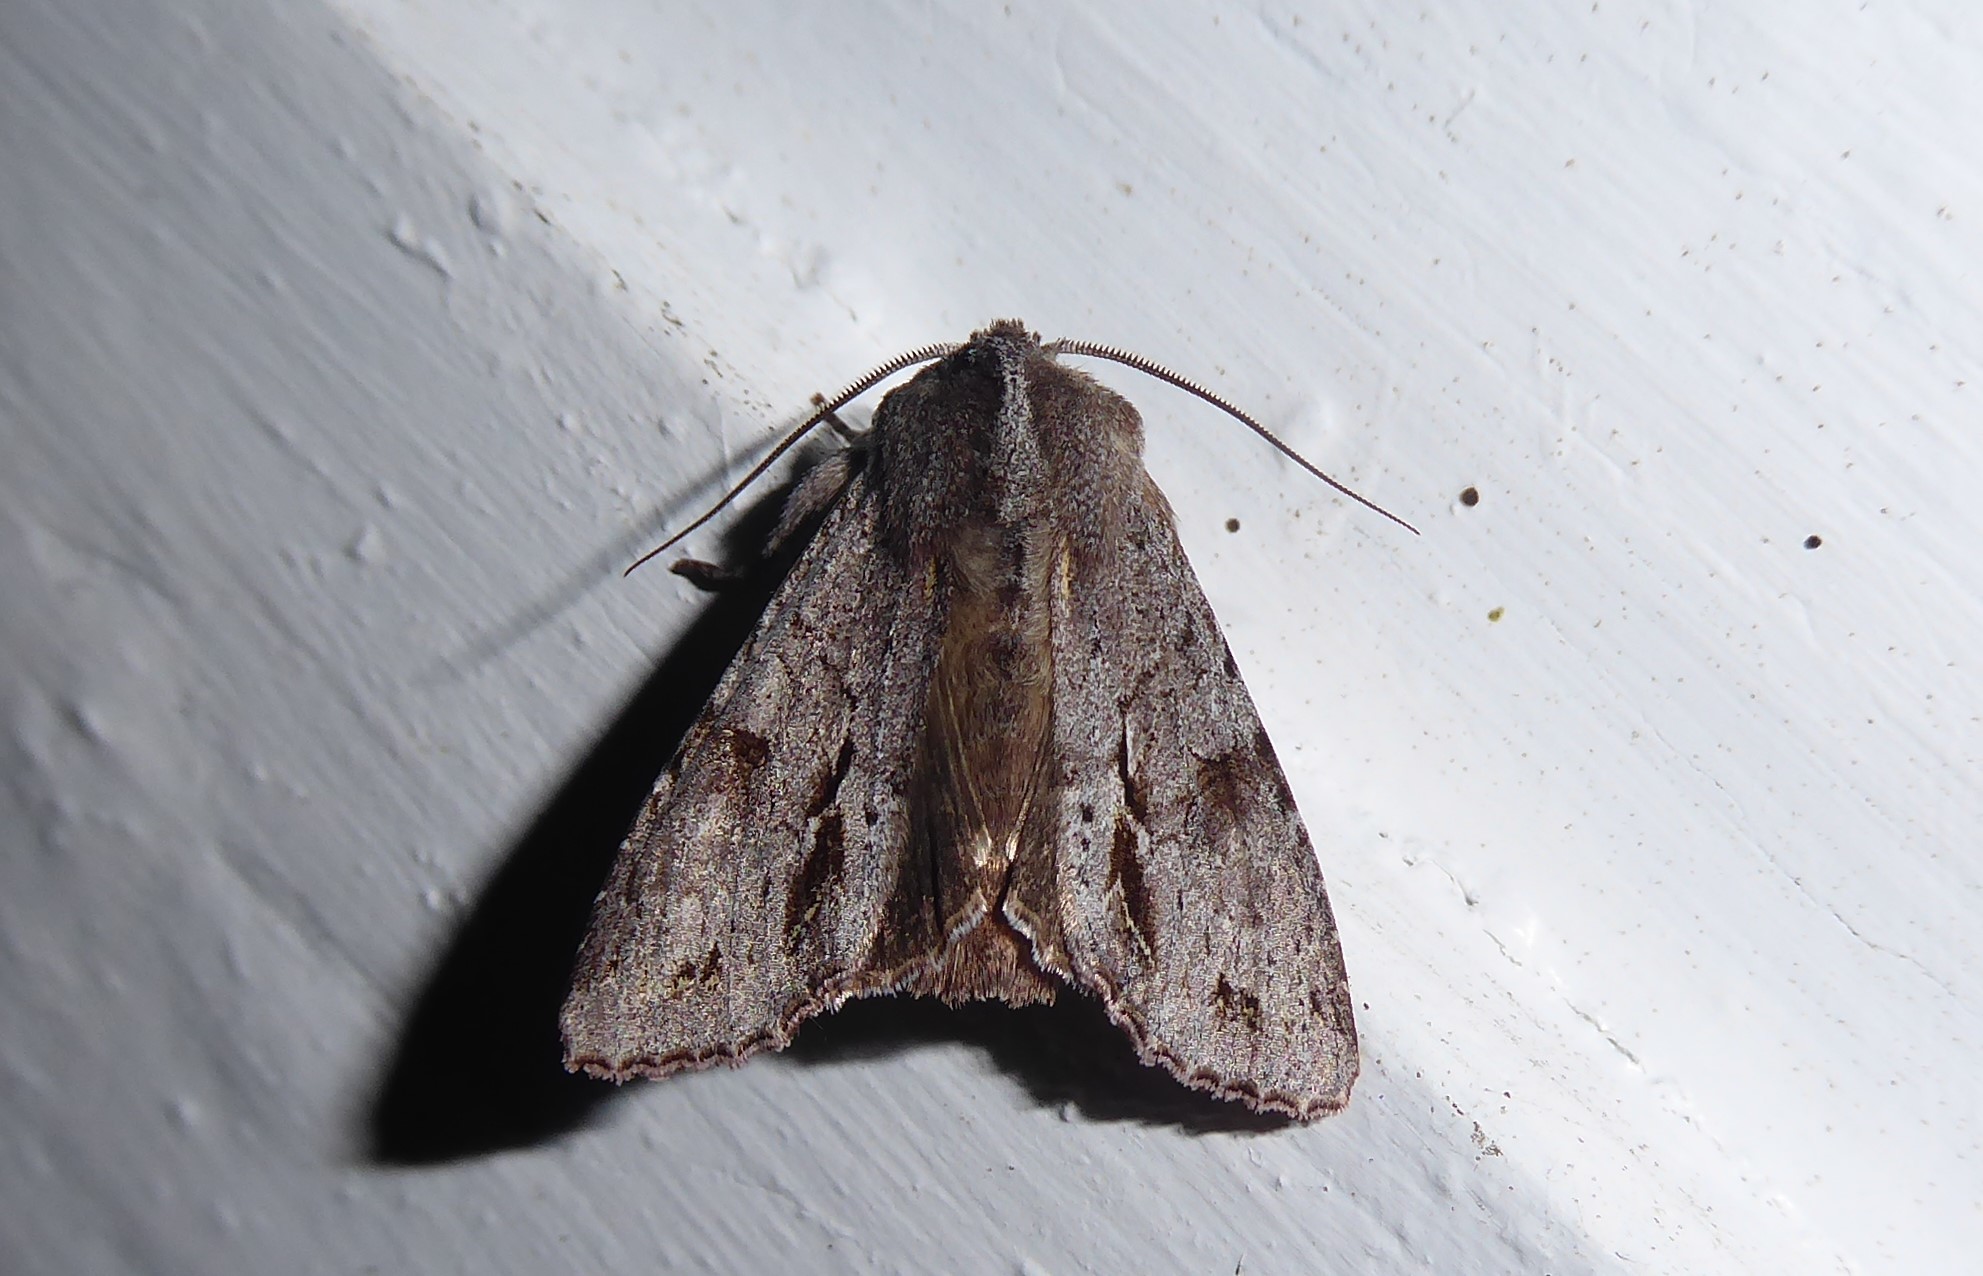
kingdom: Animalia
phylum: Arthropoda
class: Insecta
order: Lepidoptera
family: Noctuidae
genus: Ichneutica
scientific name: Ichneutica
